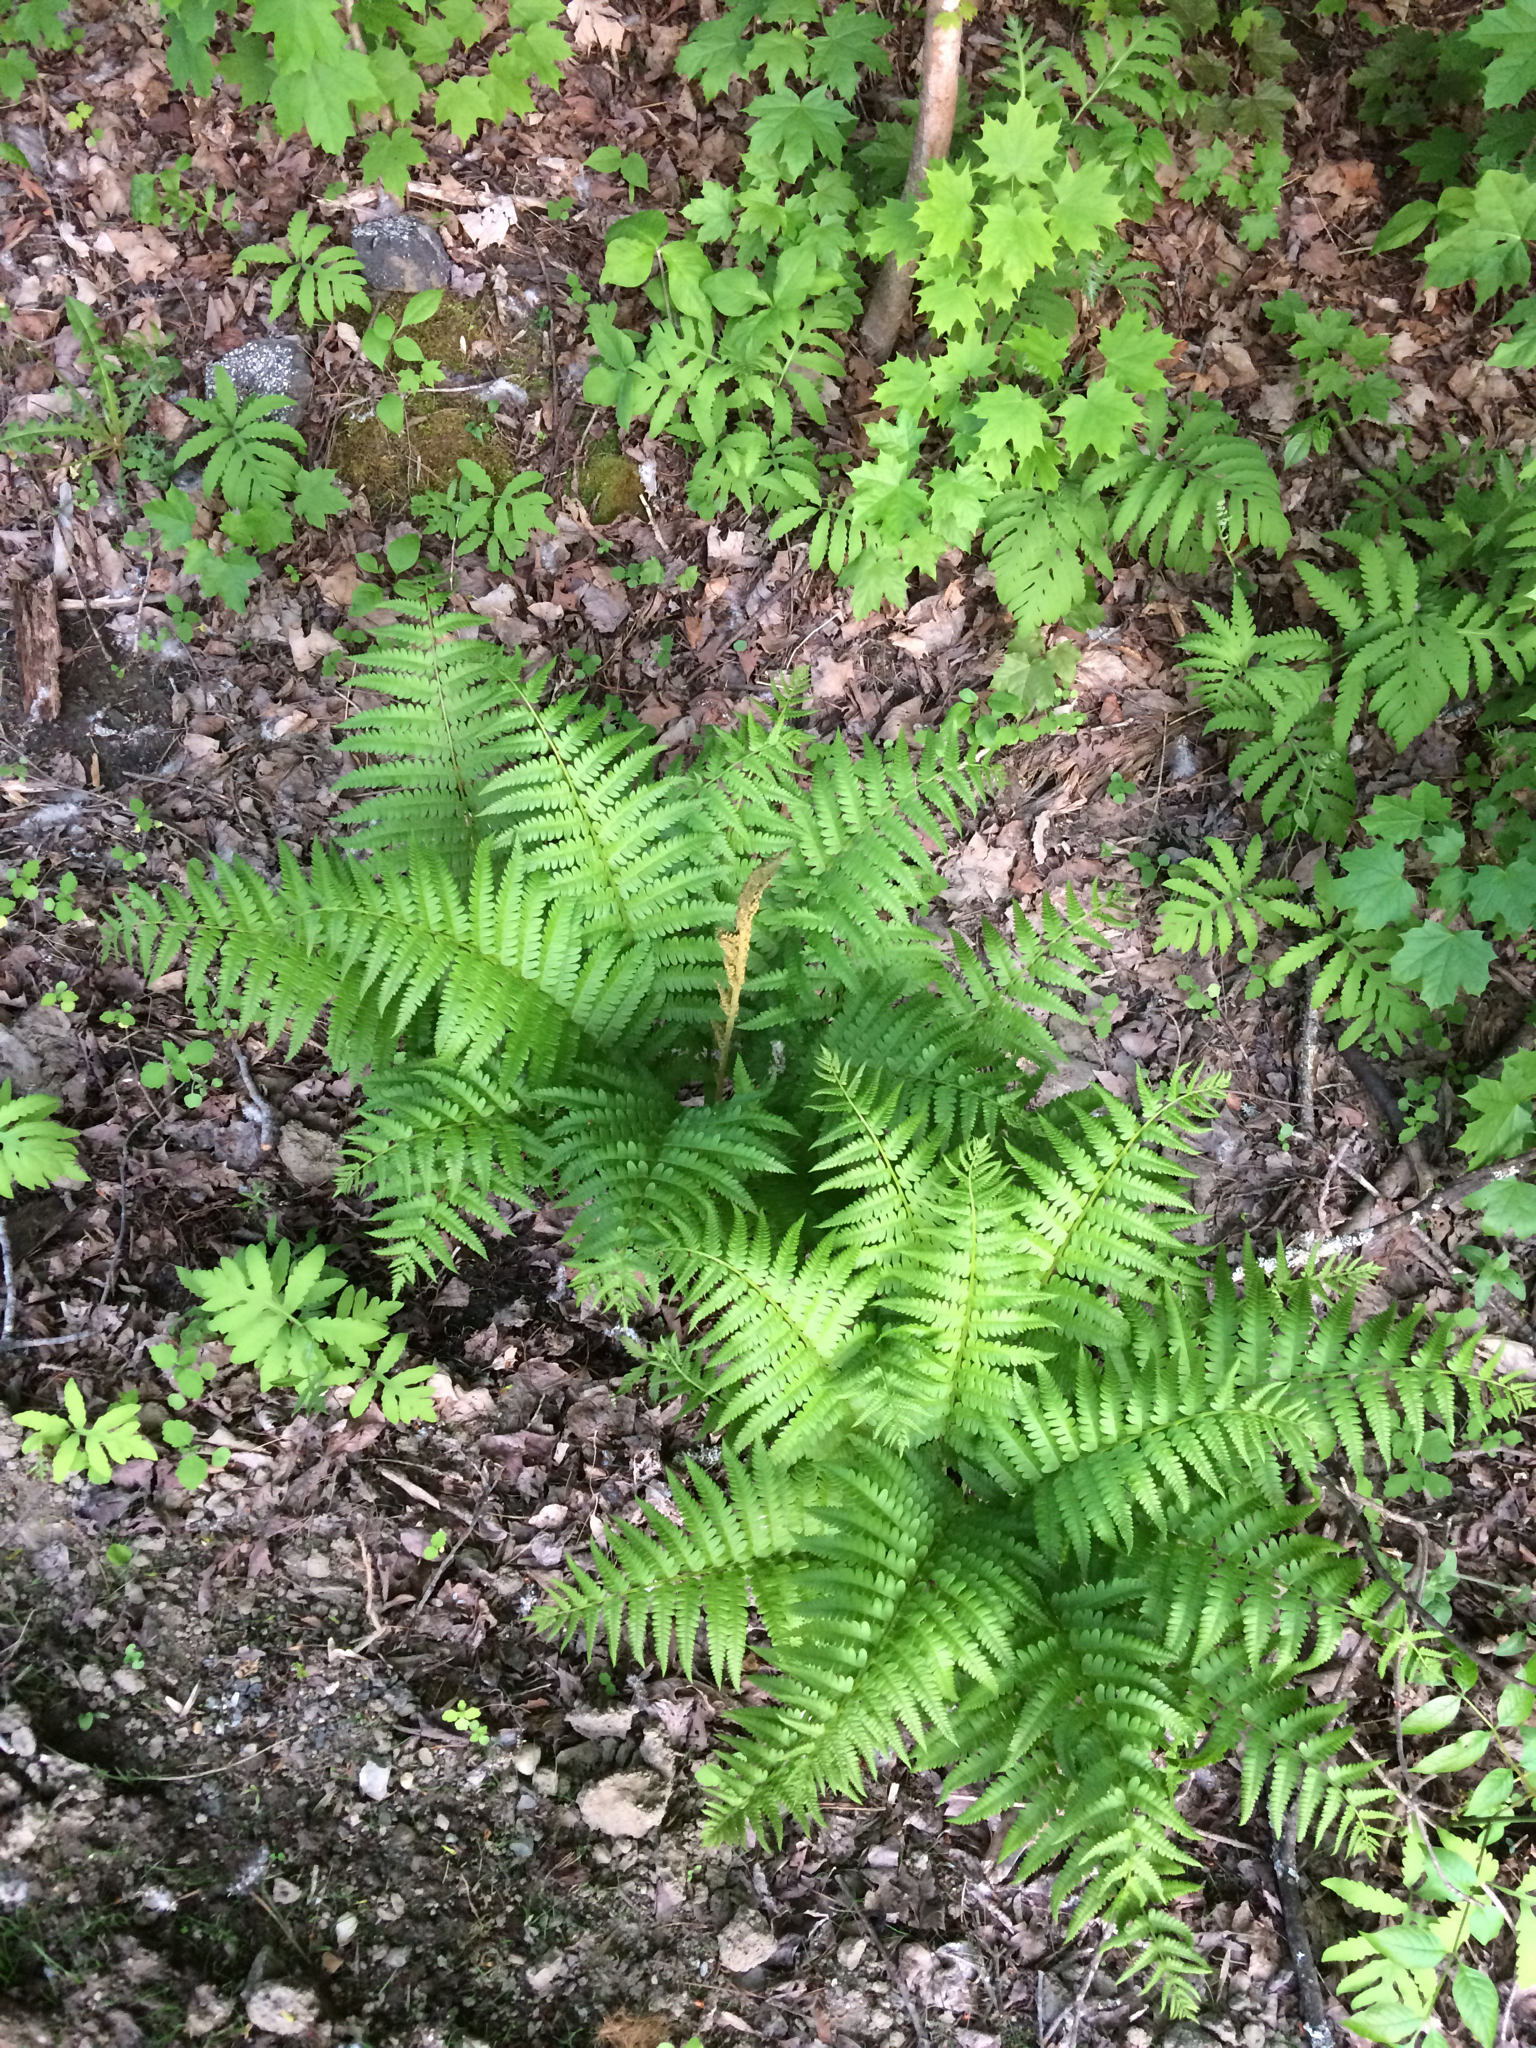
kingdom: Plantae
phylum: Tracheophyta
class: Polypodiopsida
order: Osmundales
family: Osmundaceae
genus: Osmundastrum
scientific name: Osmundastrum cinnamomeum
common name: Cinnamon fern
